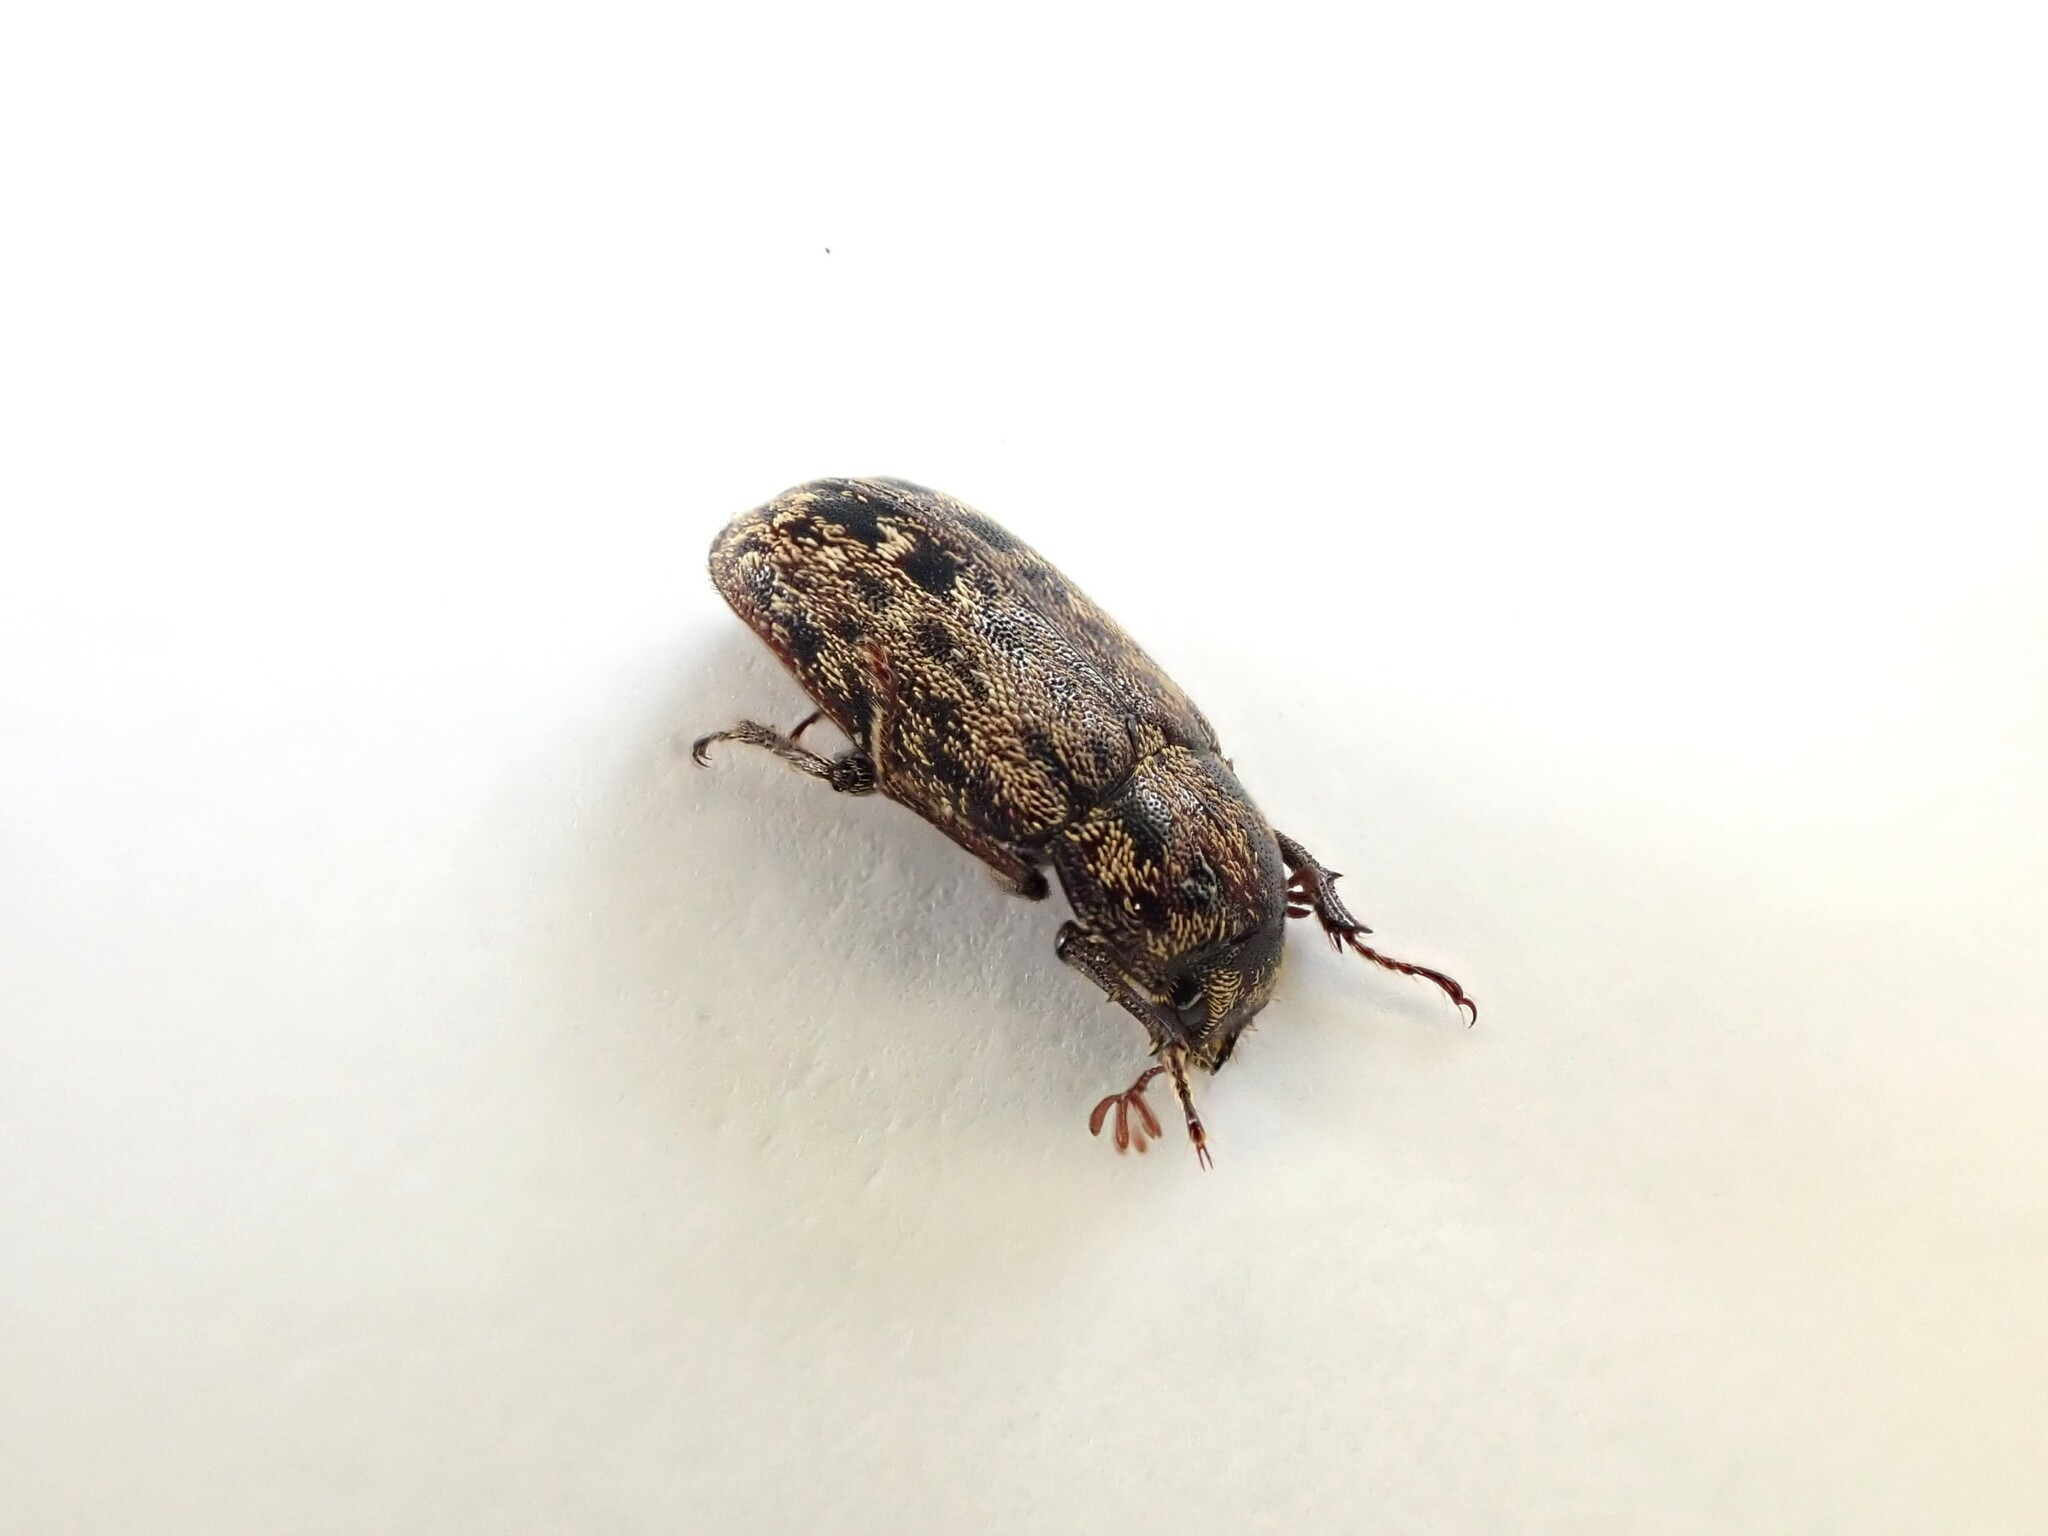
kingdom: Animalia
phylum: Arthropoda
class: Insecta
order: Coleoptera
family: Lucanidae
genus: Mitophyllus
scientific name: Mitophyllus irroratus
